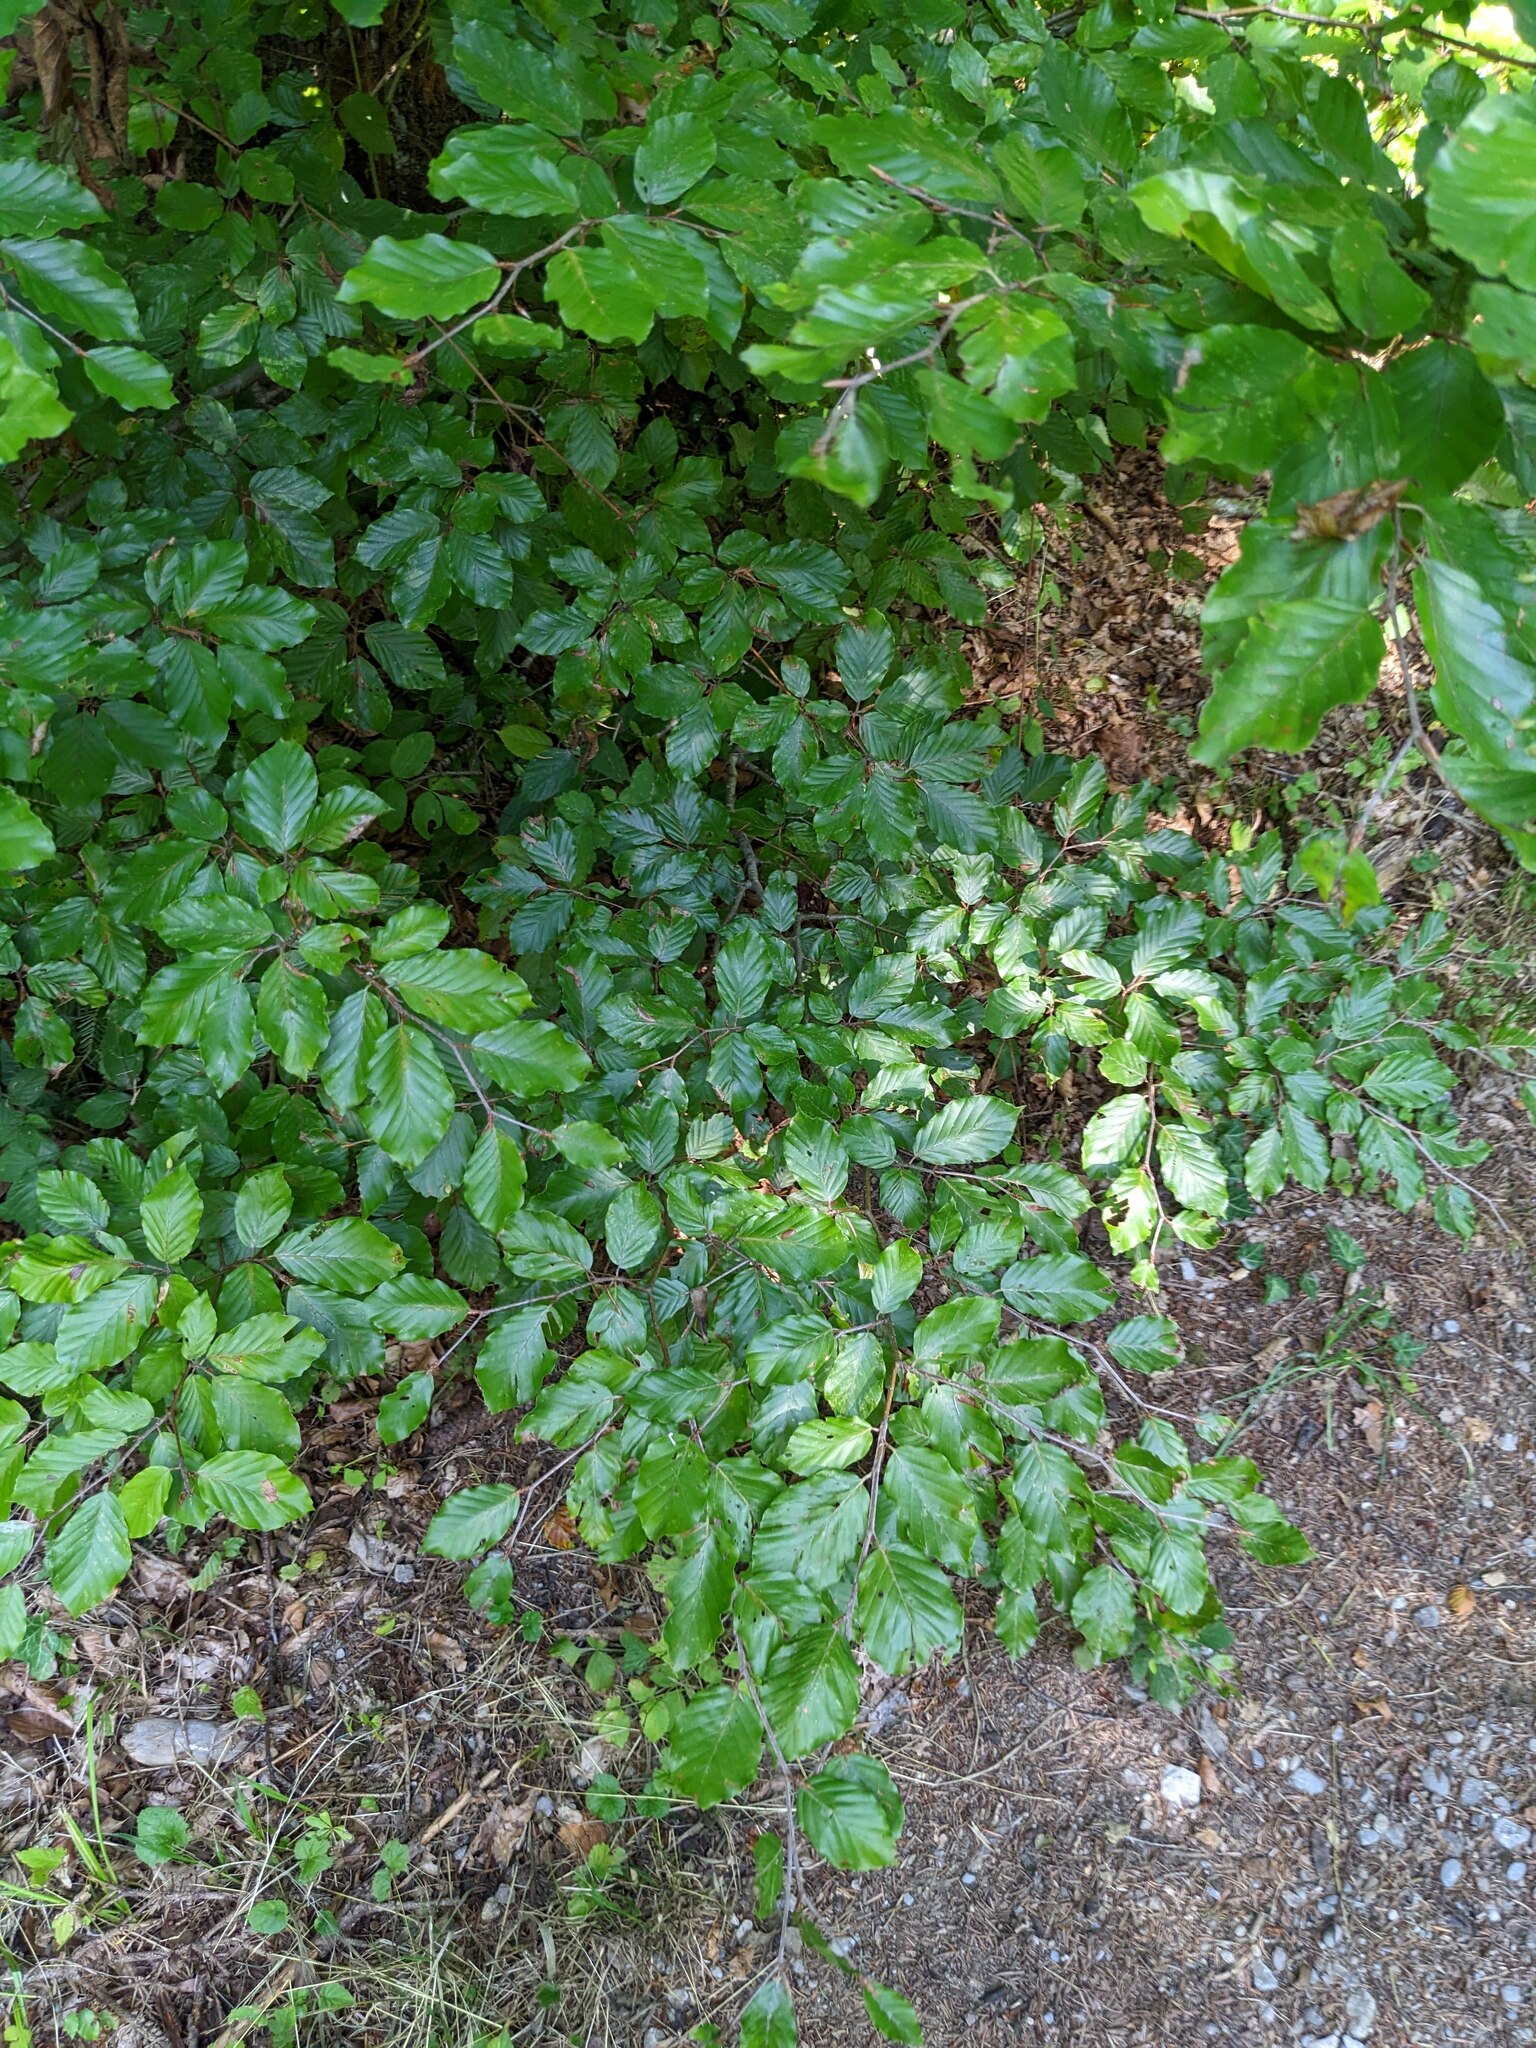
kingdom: Plantae
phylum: Tracheophyta
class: Magnoliopsida
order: Fagales
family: Fagaceae
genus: Fagus
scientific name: Fagus sylvatica
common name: Beech
